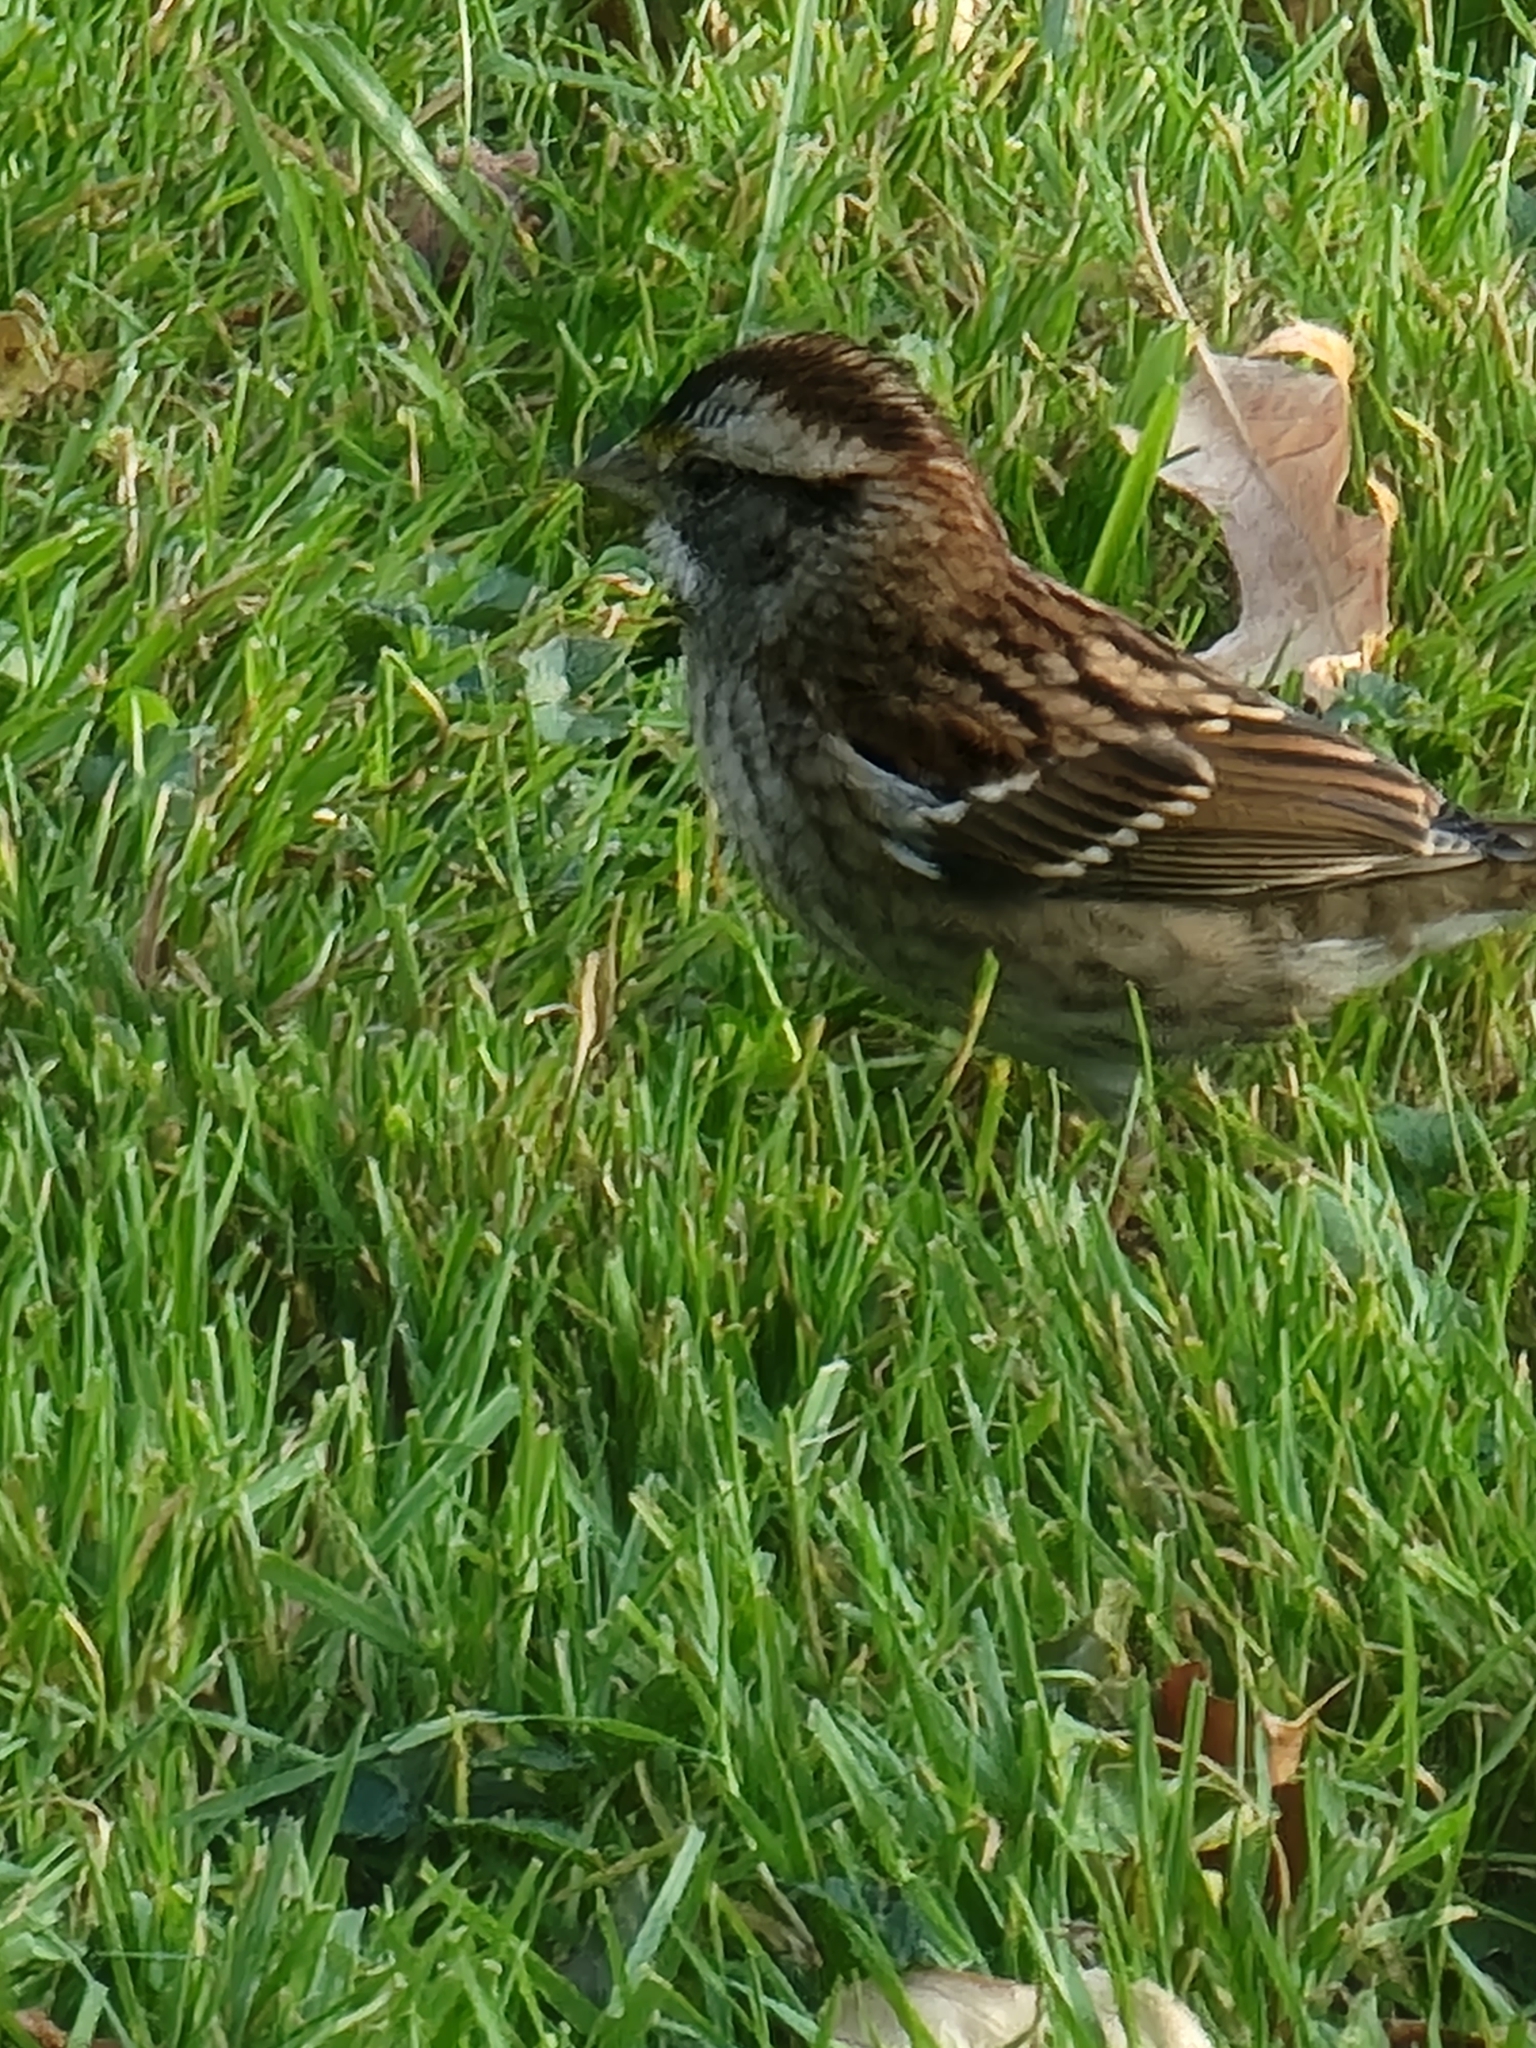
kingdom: Animalia
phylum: Chordata
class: Aves
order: Passeriformes
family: Passerellidae
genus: Zonotrichia
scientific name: Zonotrichia albicollis
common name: White-throated sparrow
